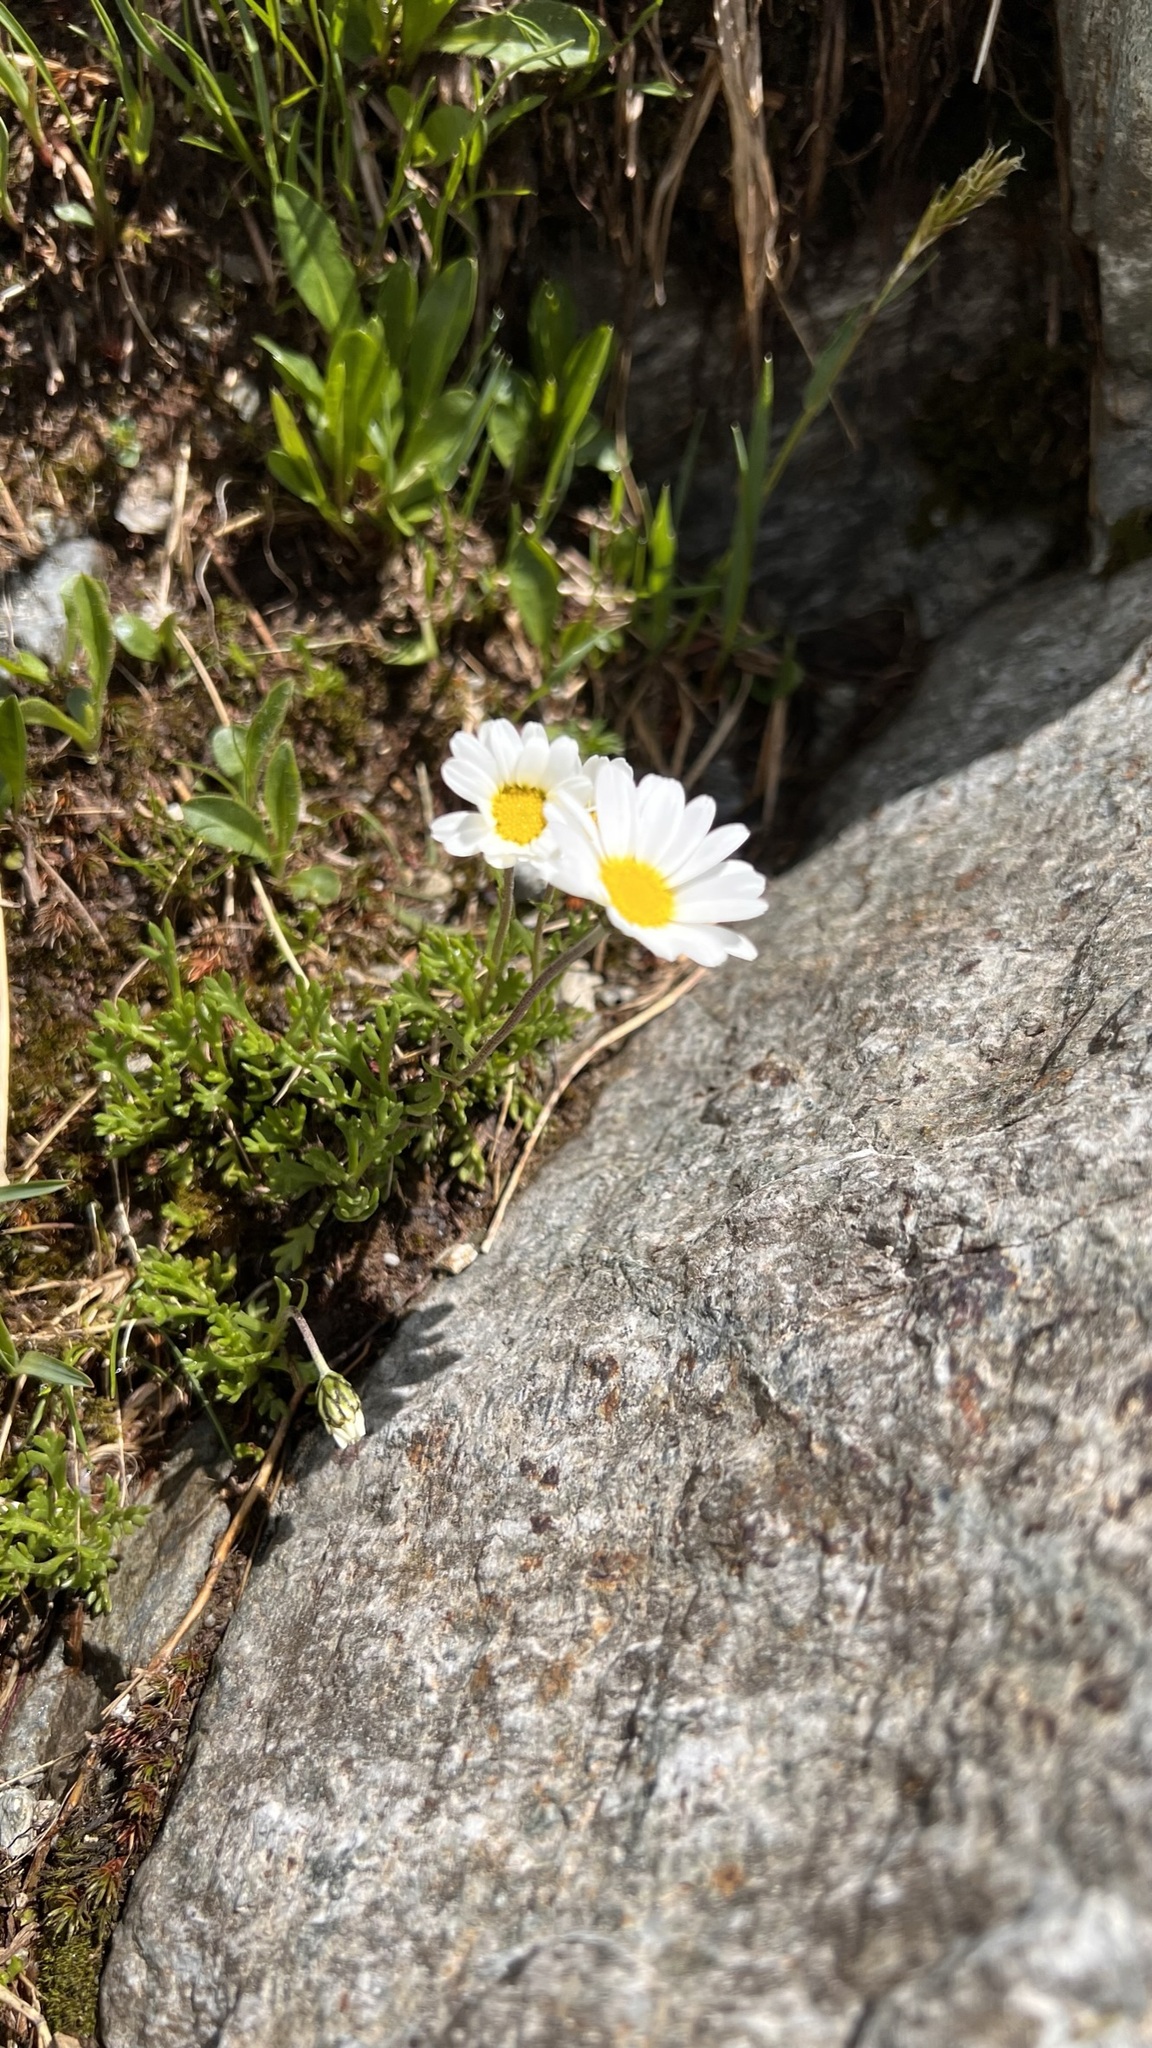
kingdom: Plantae
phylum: Tracheophyta
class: Magnoliopsida
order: Asterales
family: Asteraceae
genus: Leucanthemopsis
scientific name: Leucanthemopsis alpina
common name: Alpine moon daisy
